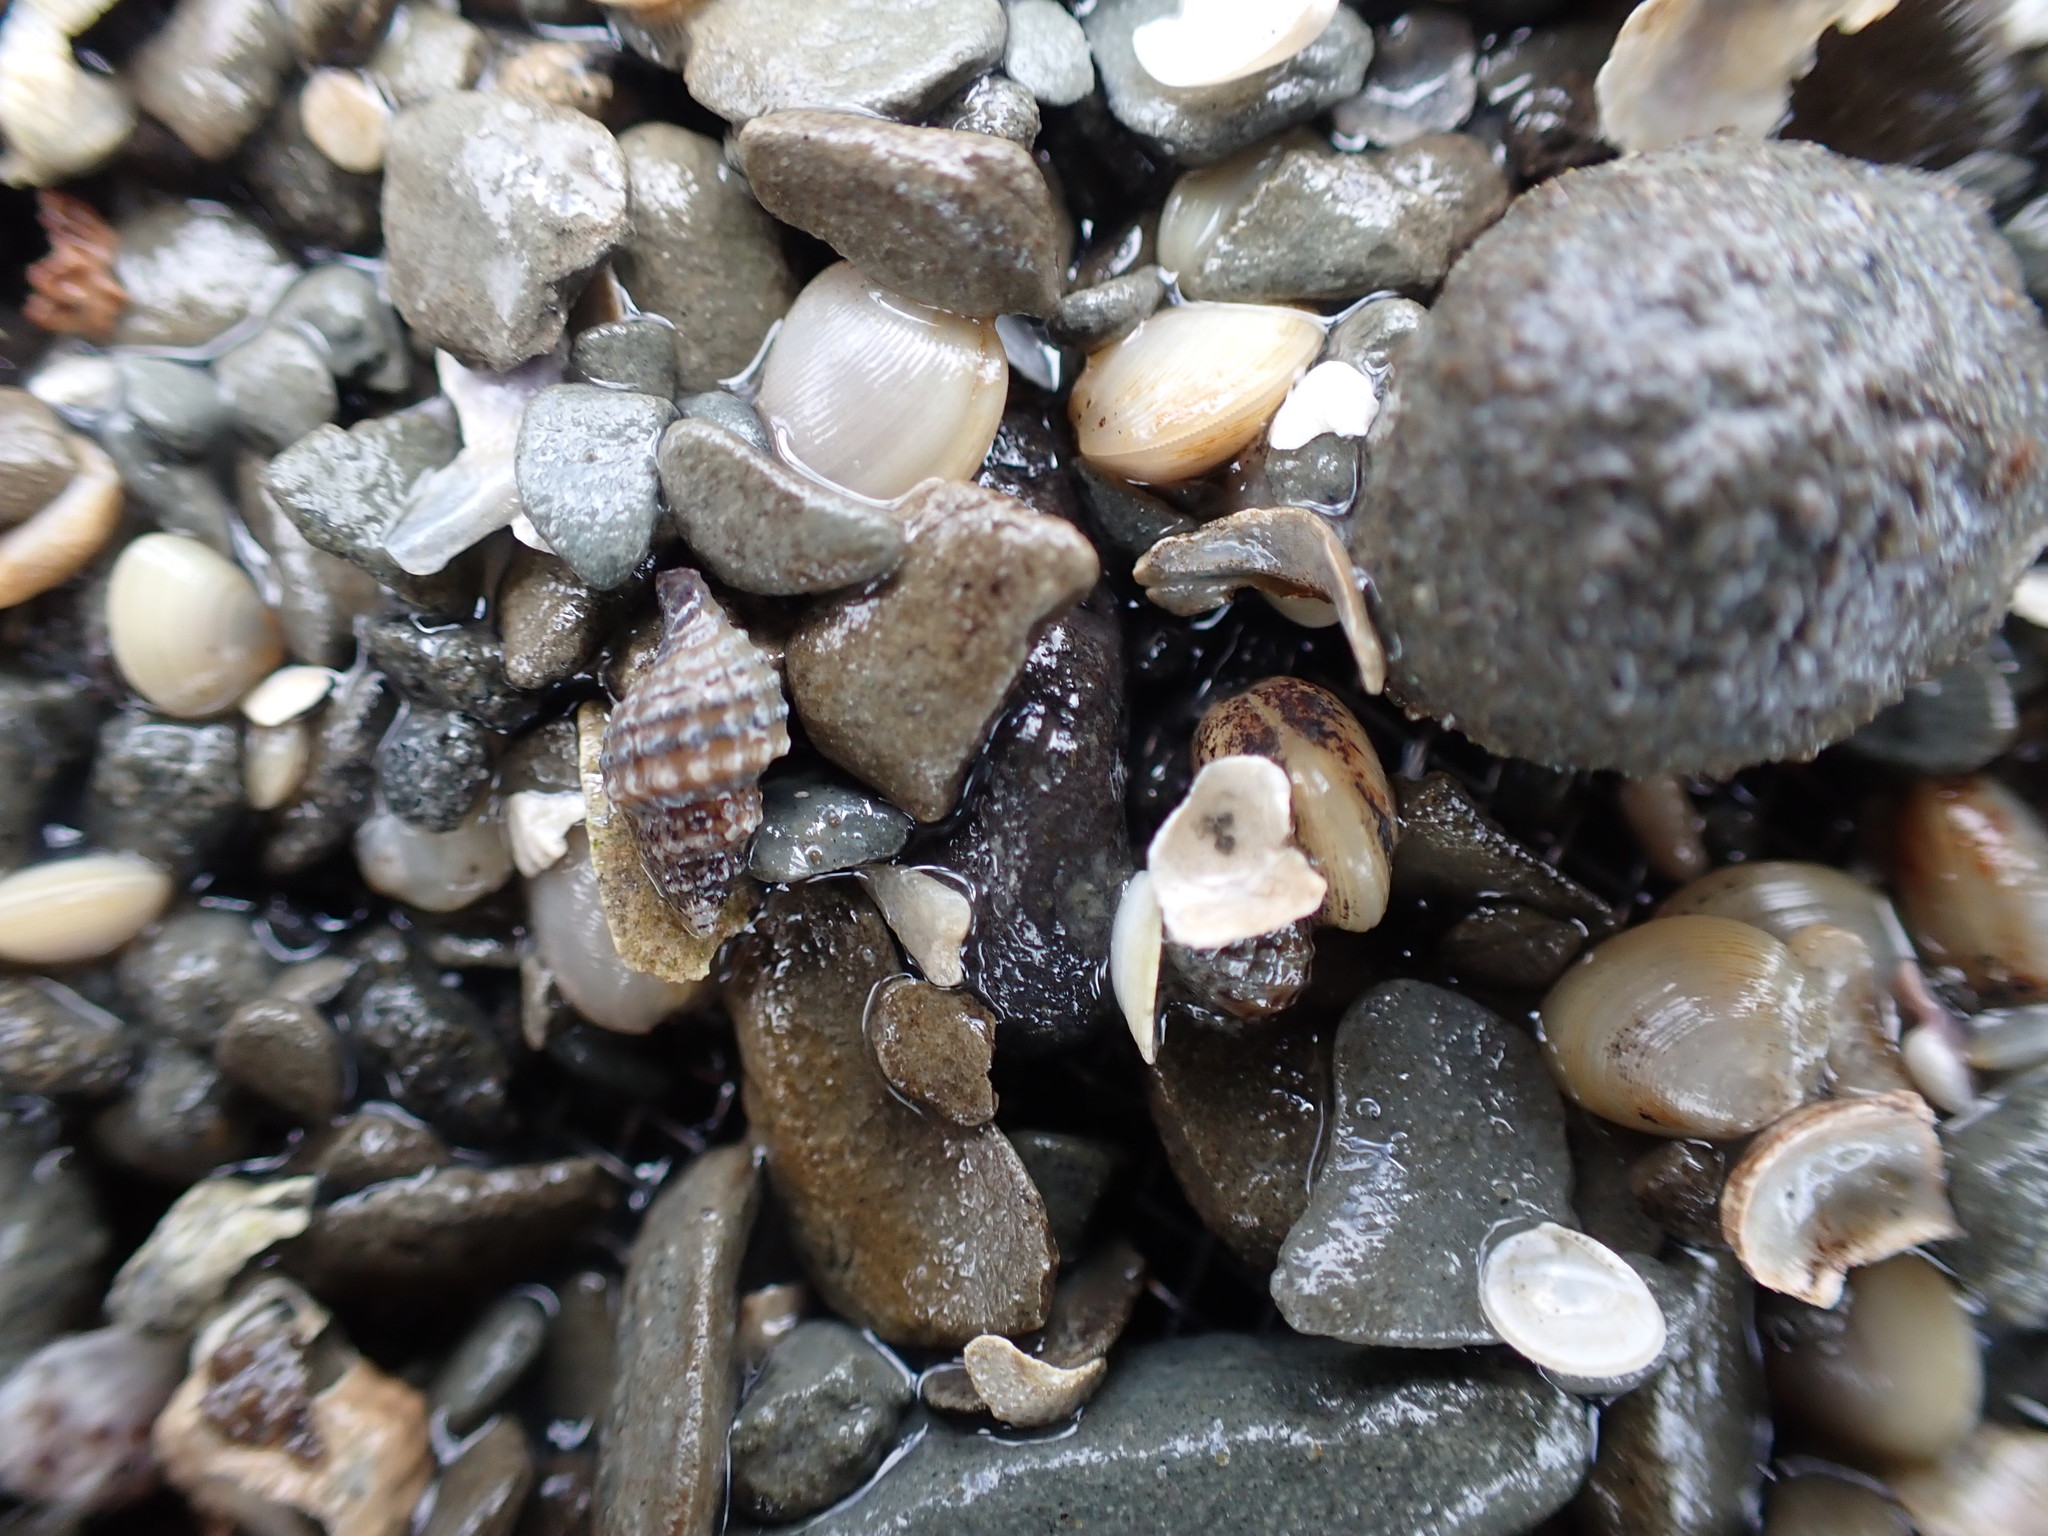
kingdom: Animalia
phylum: Mollusca
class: Gastropoda
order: Neogastropoda
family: Muricidae
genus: Xymene
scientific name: Xymene plebeius
